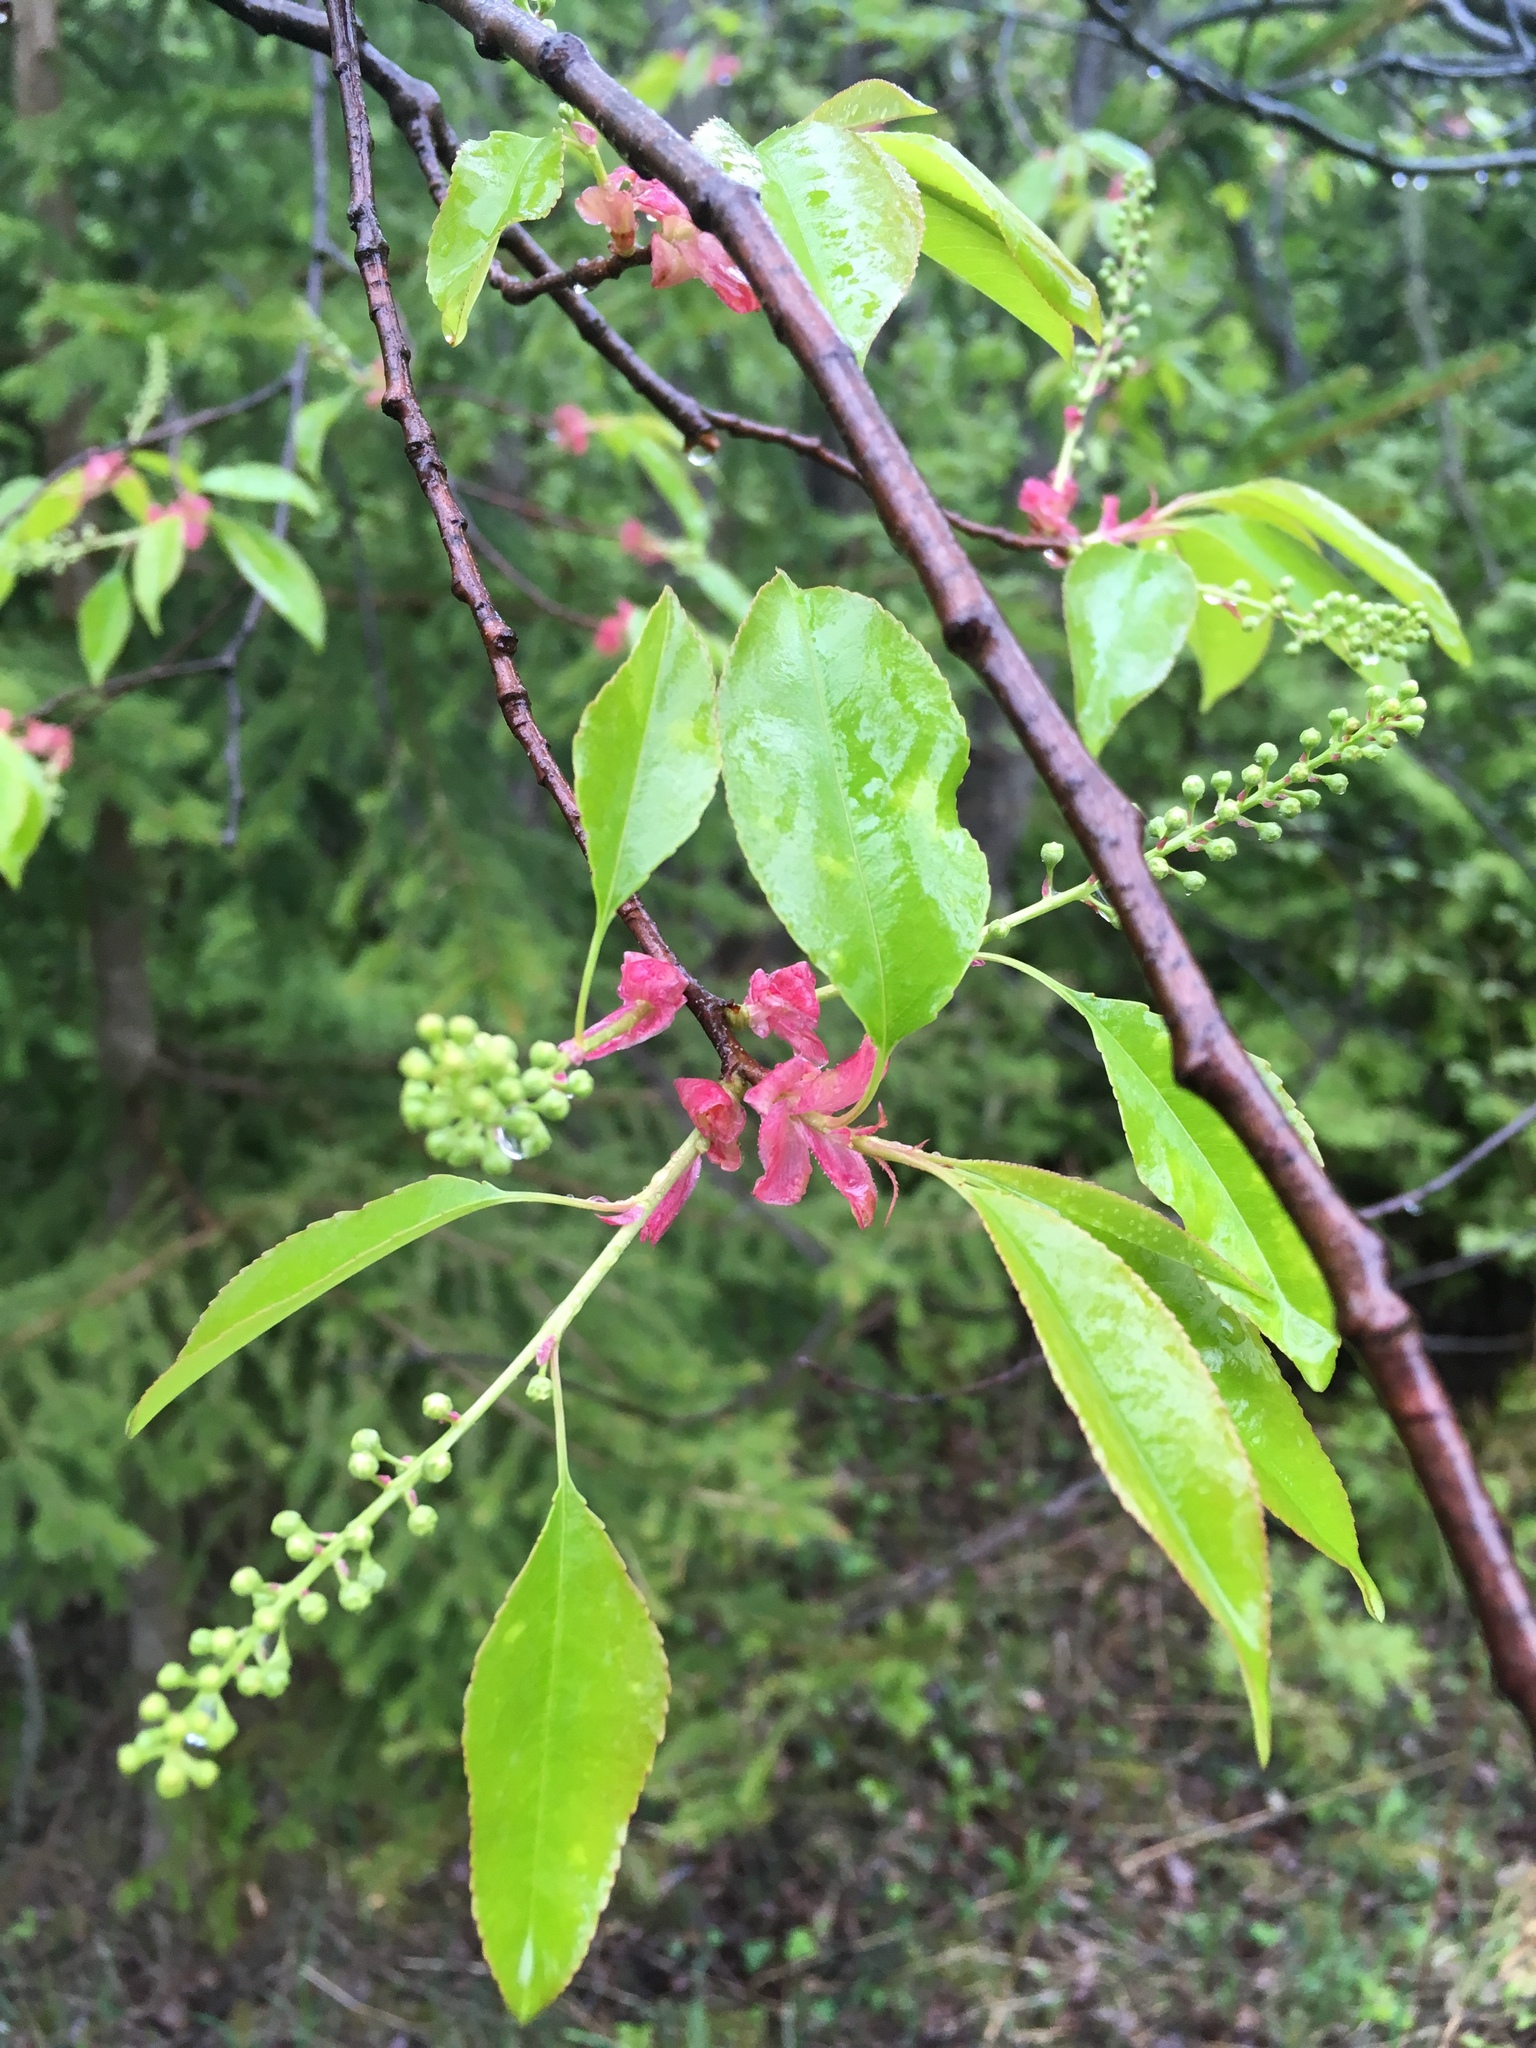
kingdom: Plantae
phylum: Tracheophyta
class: Magnoliopsida
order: Rosales
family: Rosaceae
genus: Prunus
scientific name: Prunus serotina
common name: Black cherry
